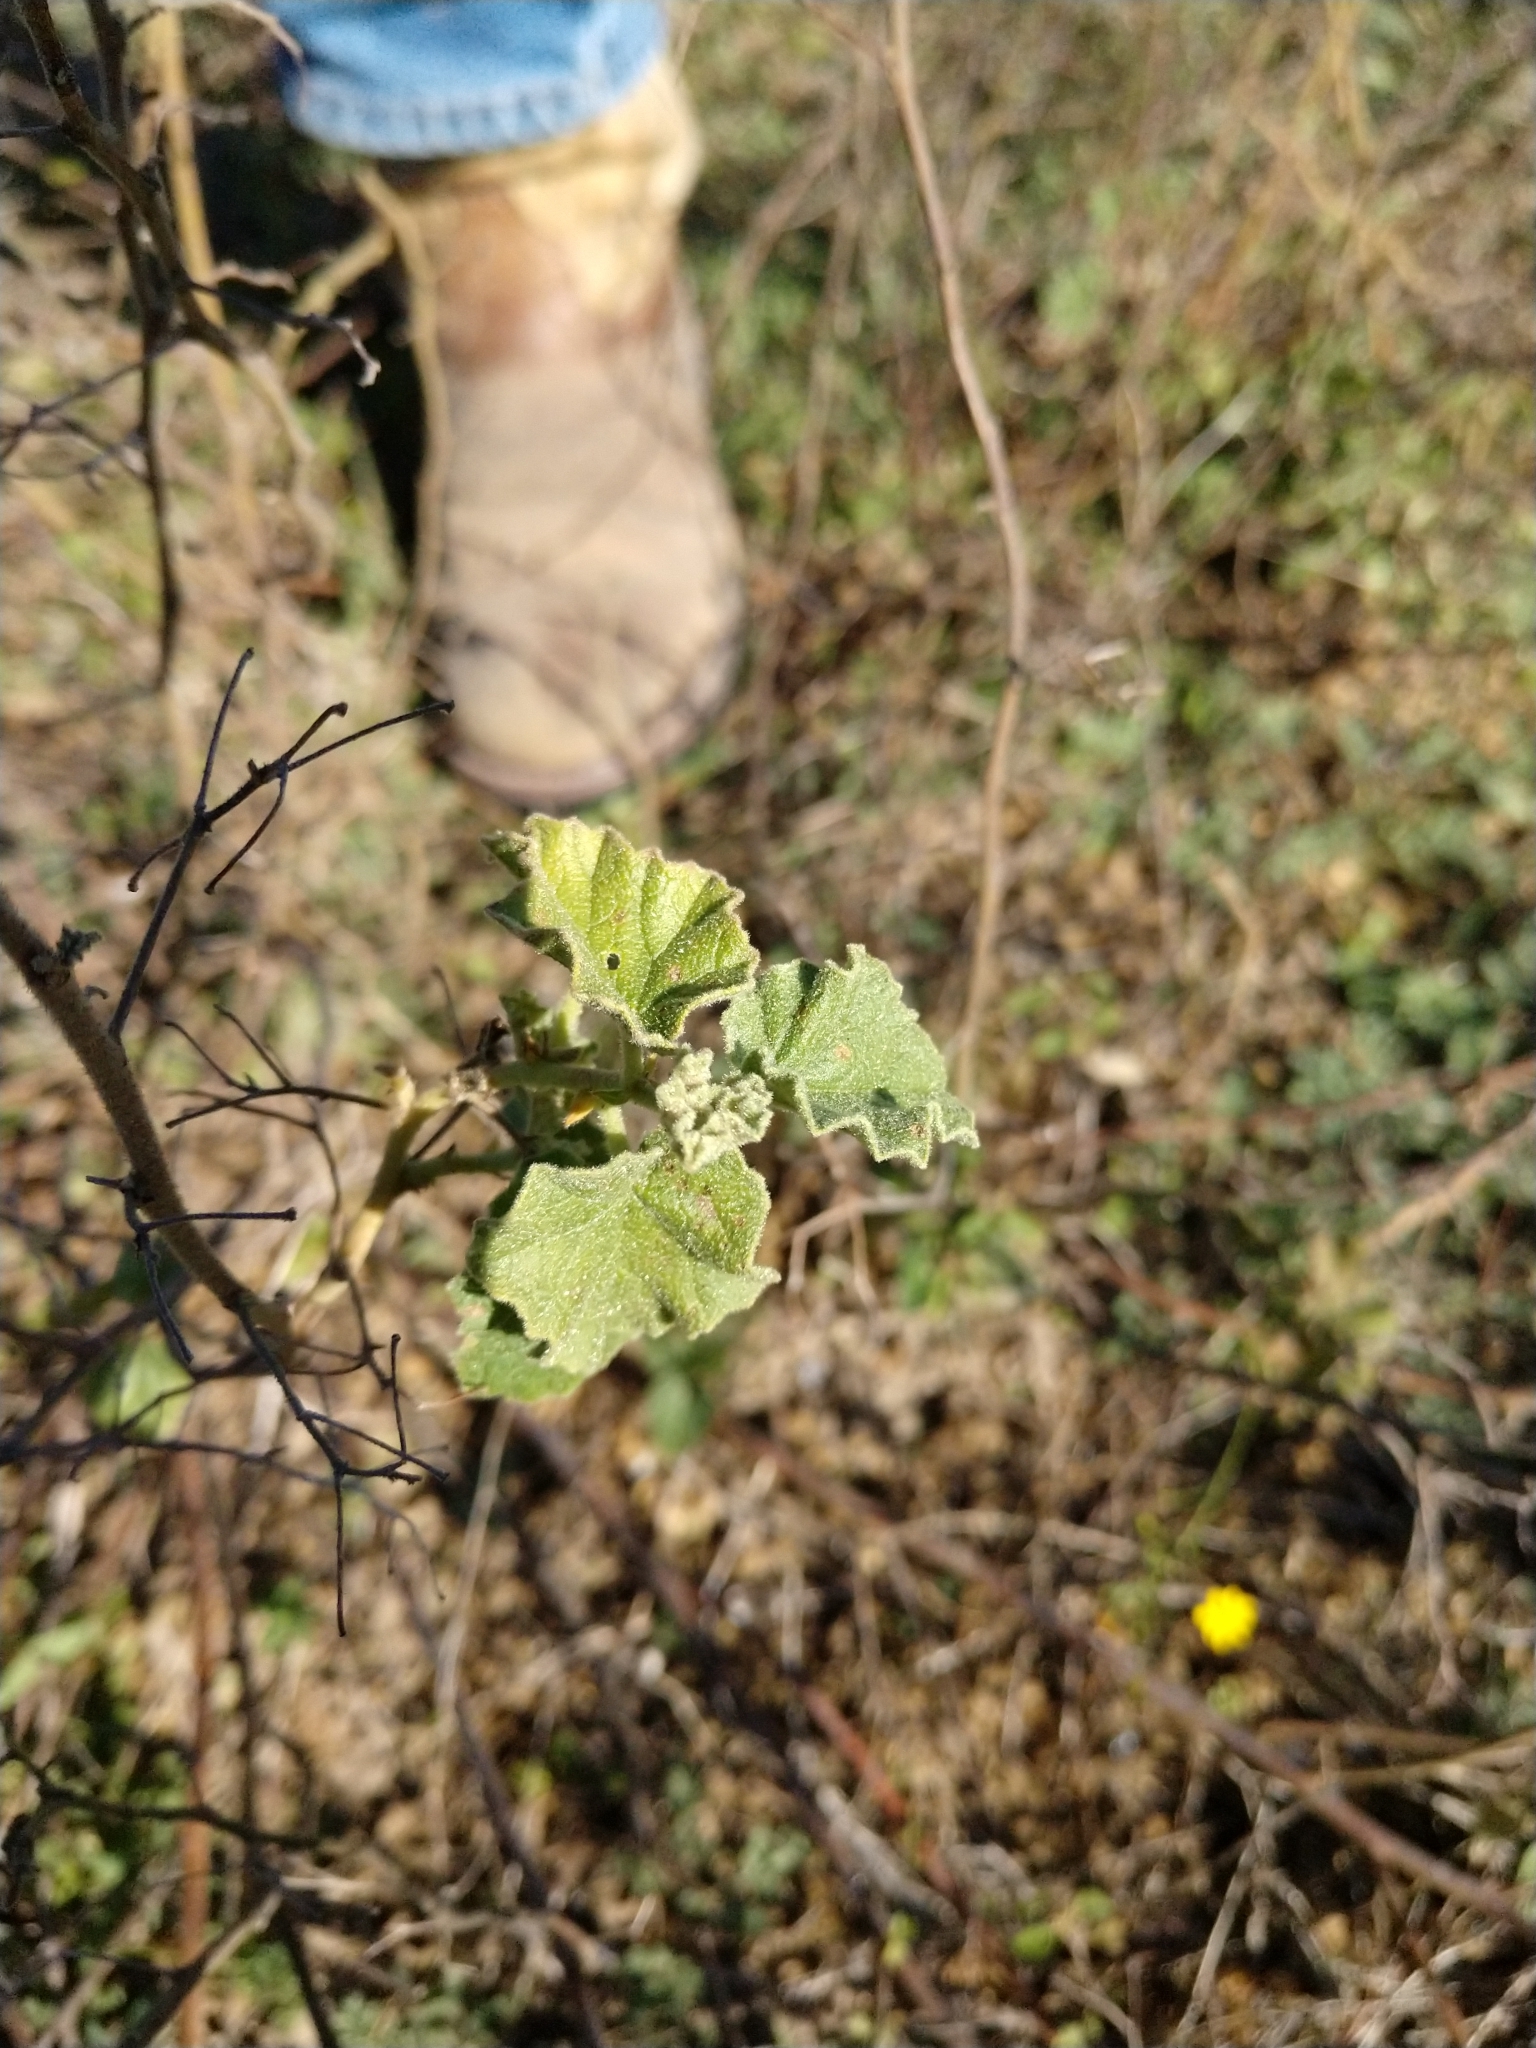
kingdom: Plantae
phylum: Tracheophyta
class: Magnoliopsida
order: Malvales
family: Malvaceae
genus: Hermannia
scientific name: Hermannia texana
